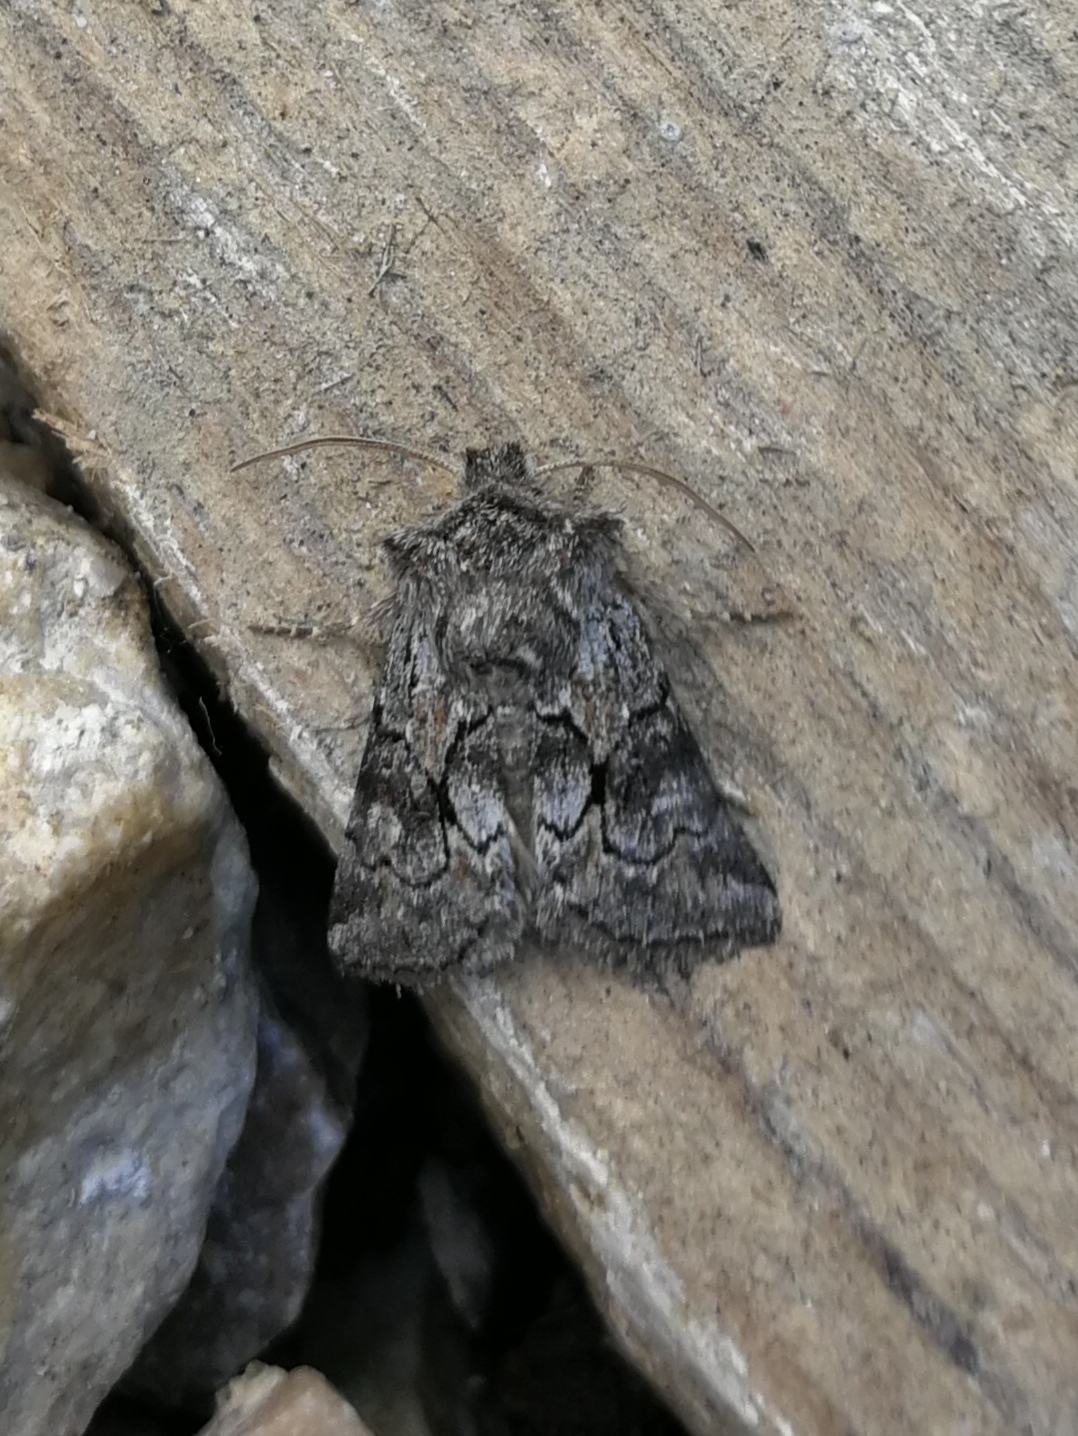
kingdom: Animalia
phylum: Arthropoda
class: Insecta
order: Lepidoptera
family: Noctuidae
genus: Cleonymia
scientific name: Cleonymia yvanii
